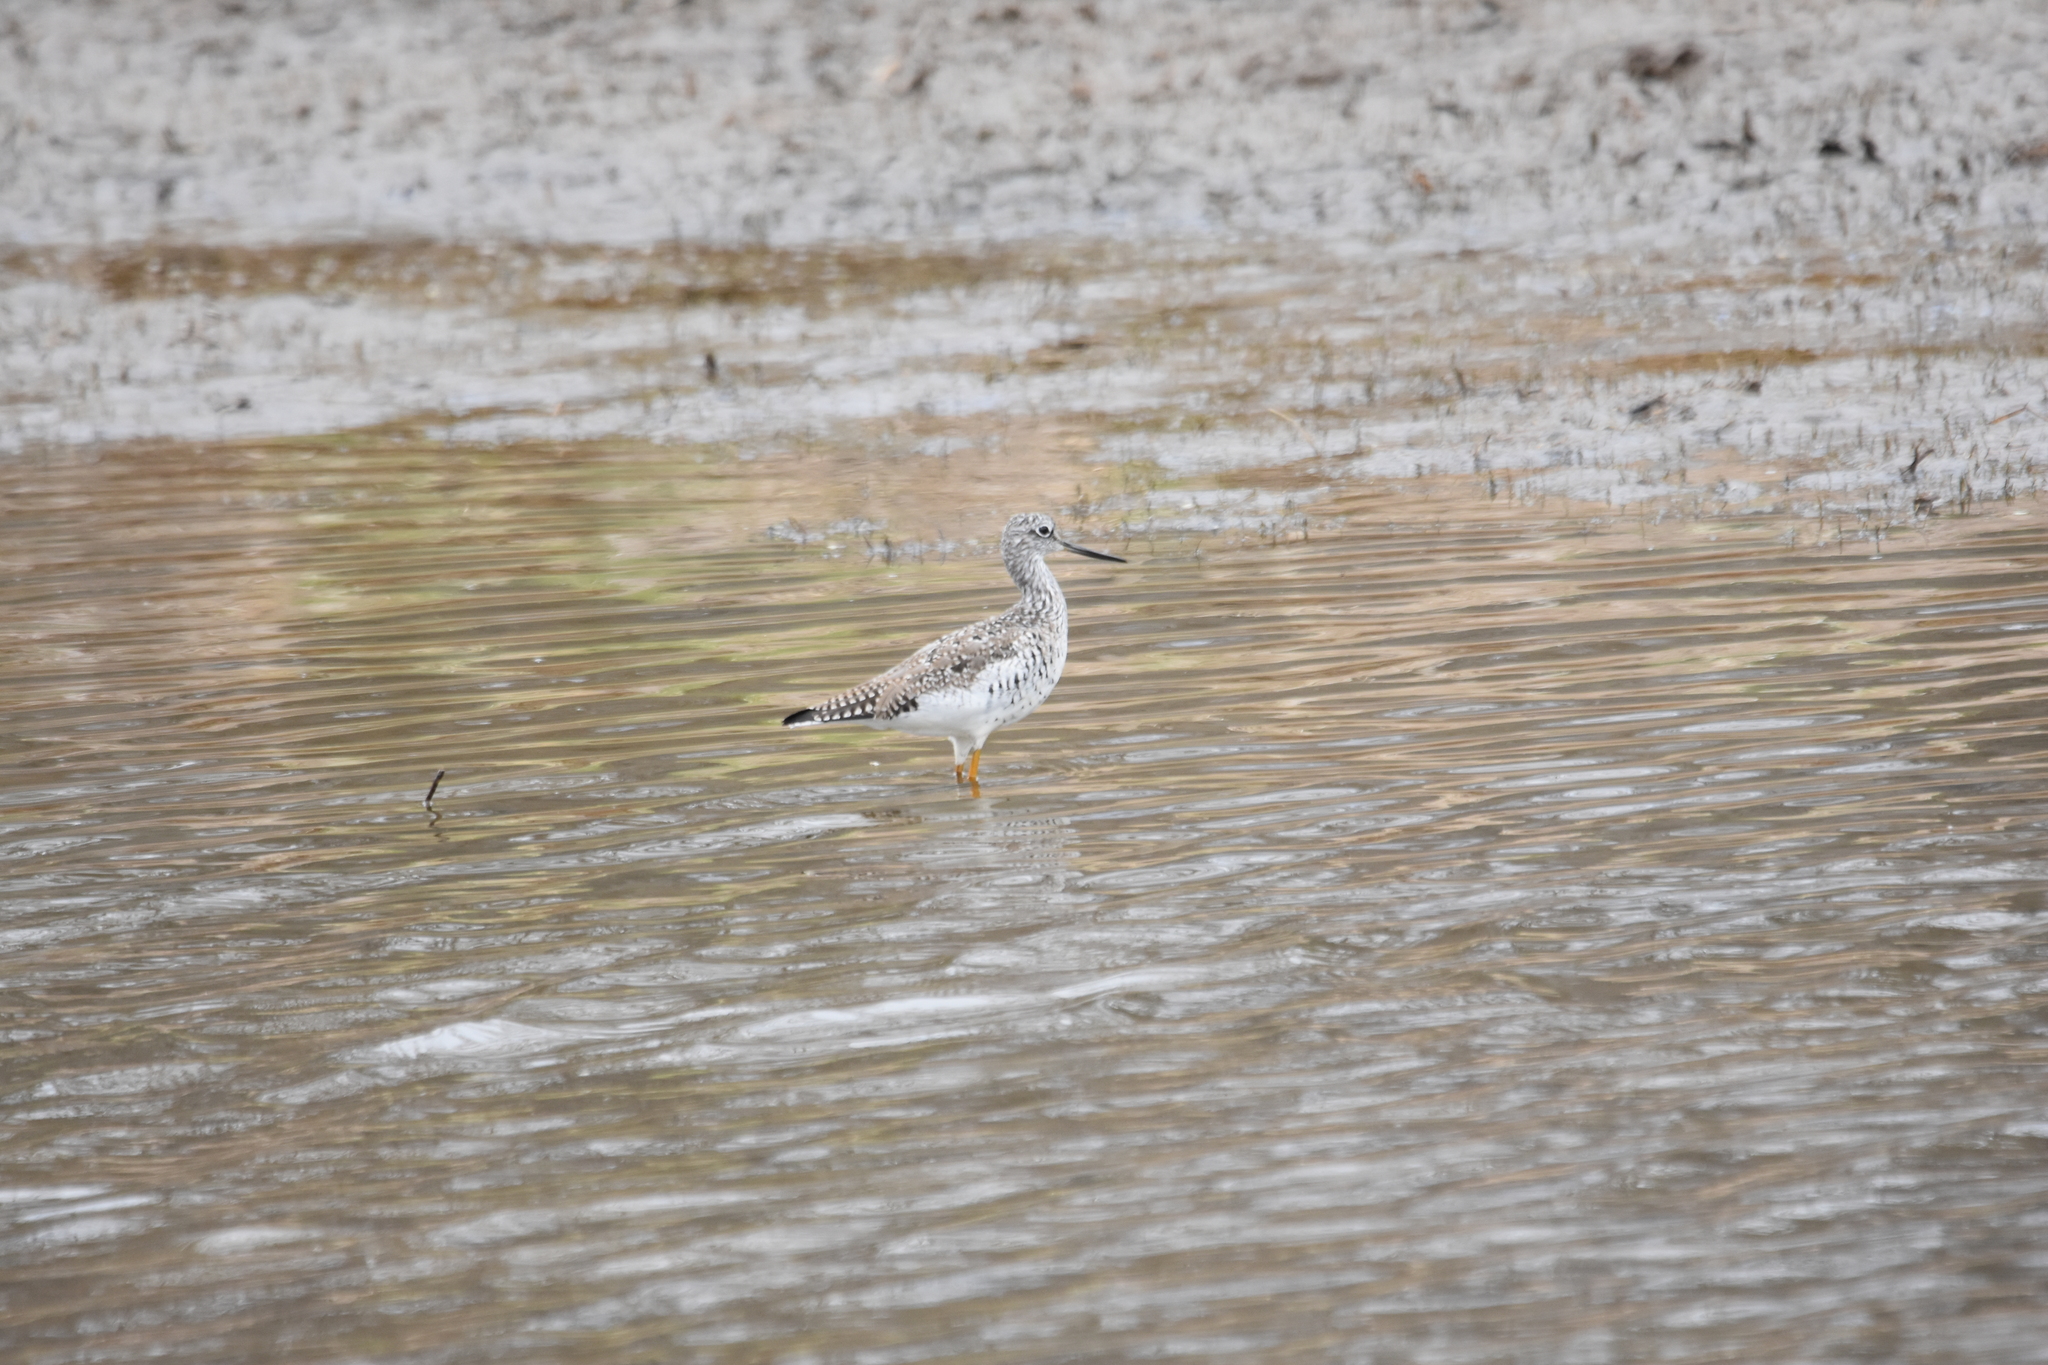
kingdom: Animalia
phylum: Chordata
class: Aves
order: Charadriiformes
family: Scolopacidae
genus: Tringa
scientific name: Tringa melanoleuca
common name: Greater yellowlegs
